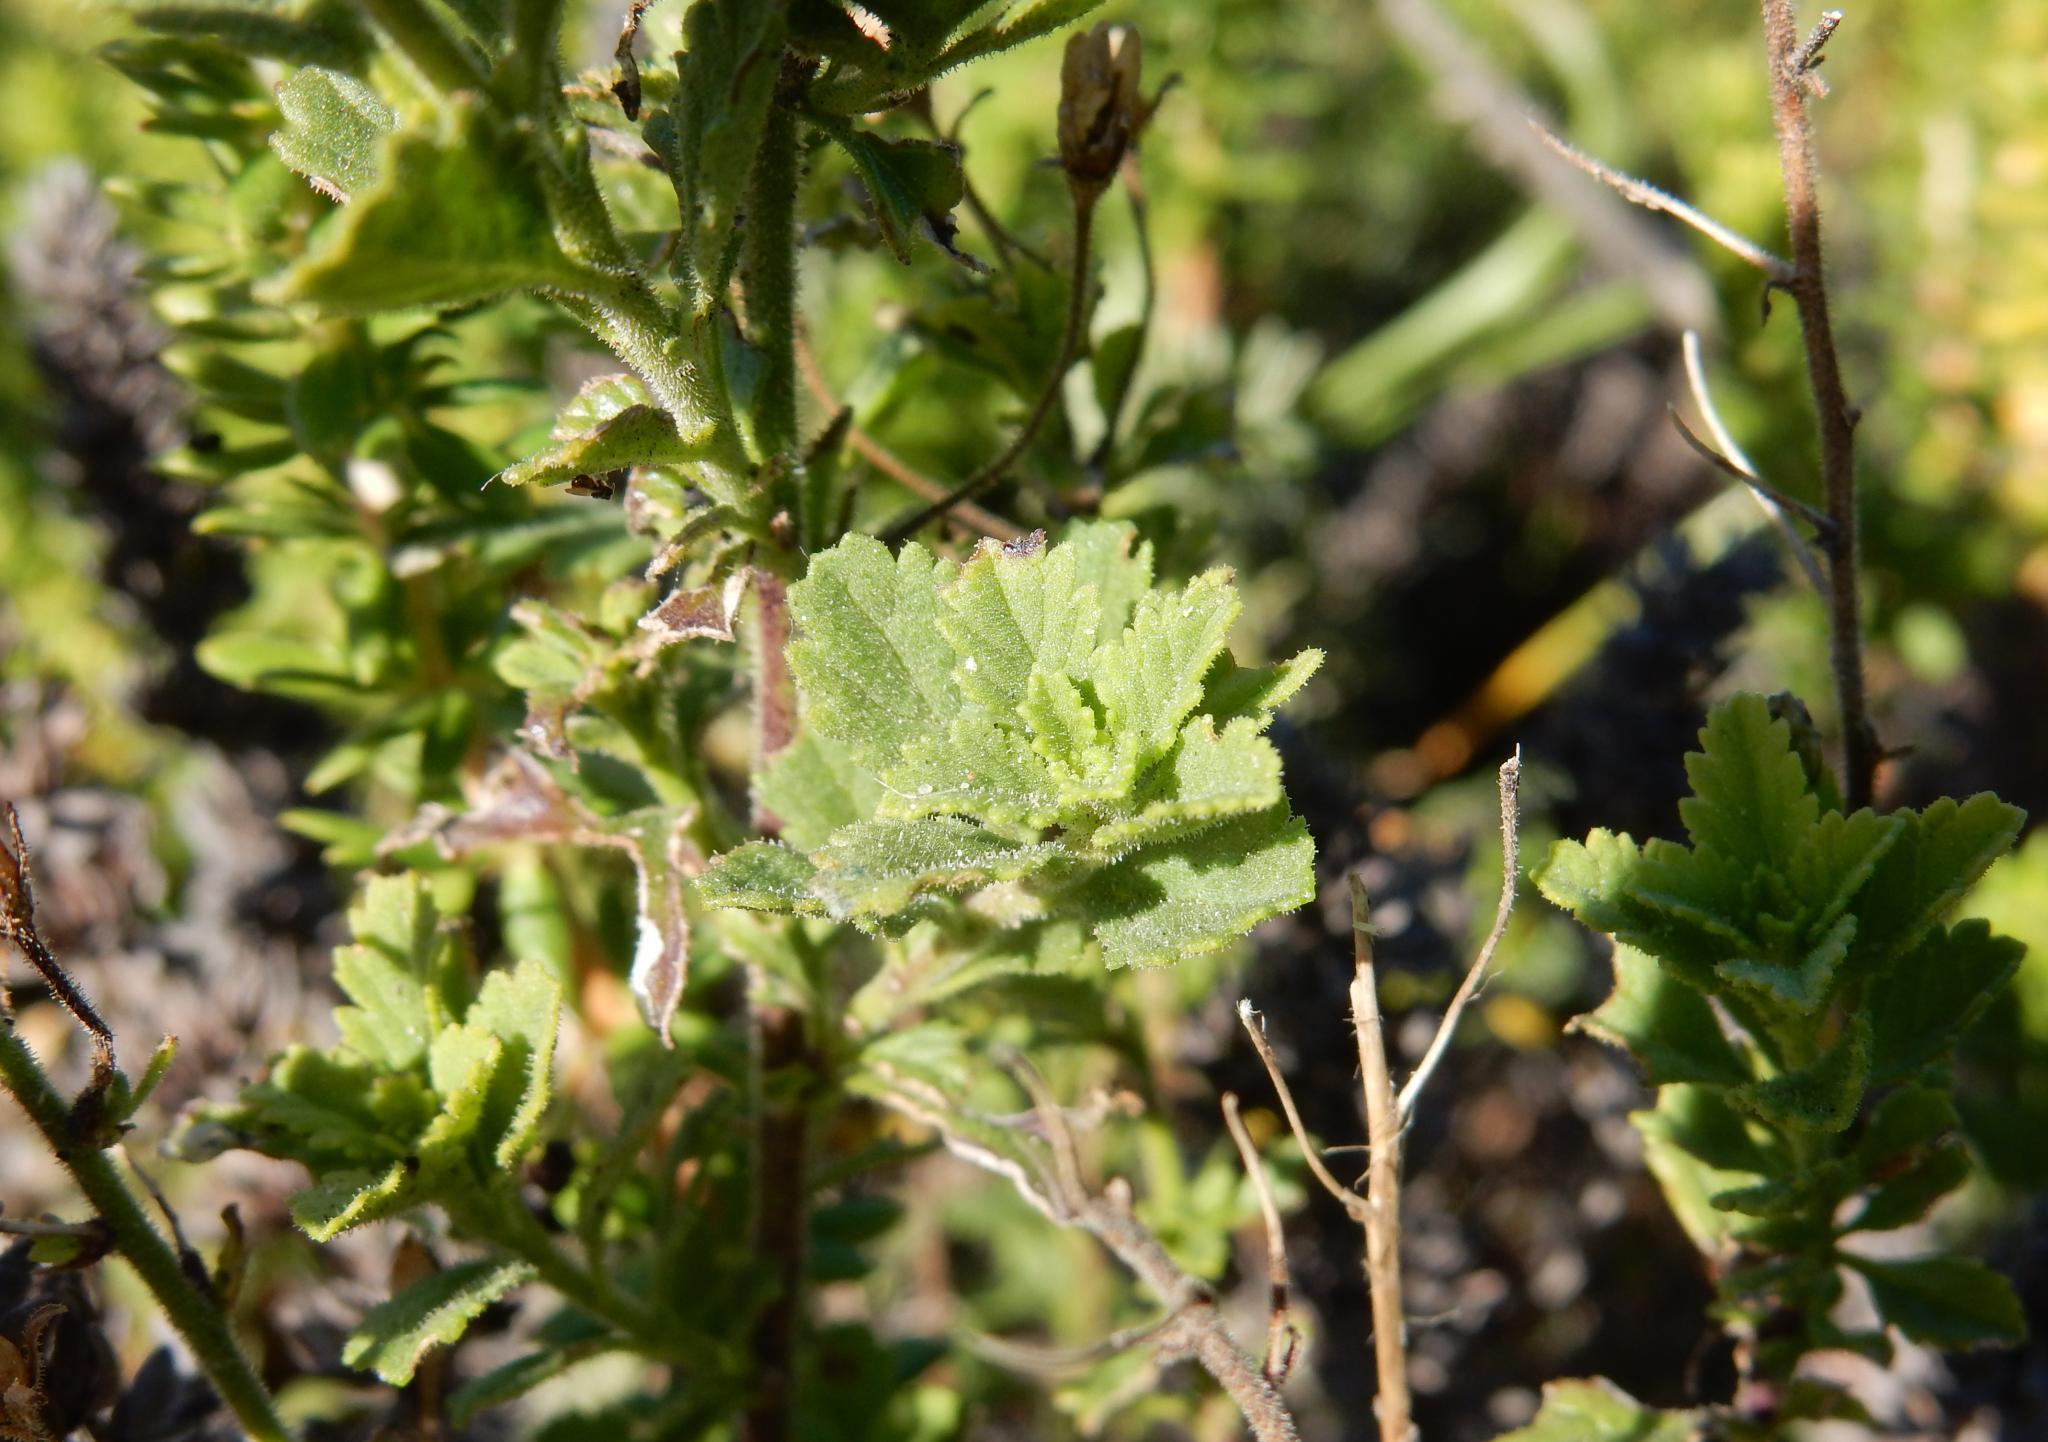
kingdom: Plantae
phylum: Tracheophyta
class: Magnoliopsida
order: Lamiales
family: Scrophulariaceae
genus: Jamesbrittenia
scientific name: Jamesbrittenia phlogiflora
